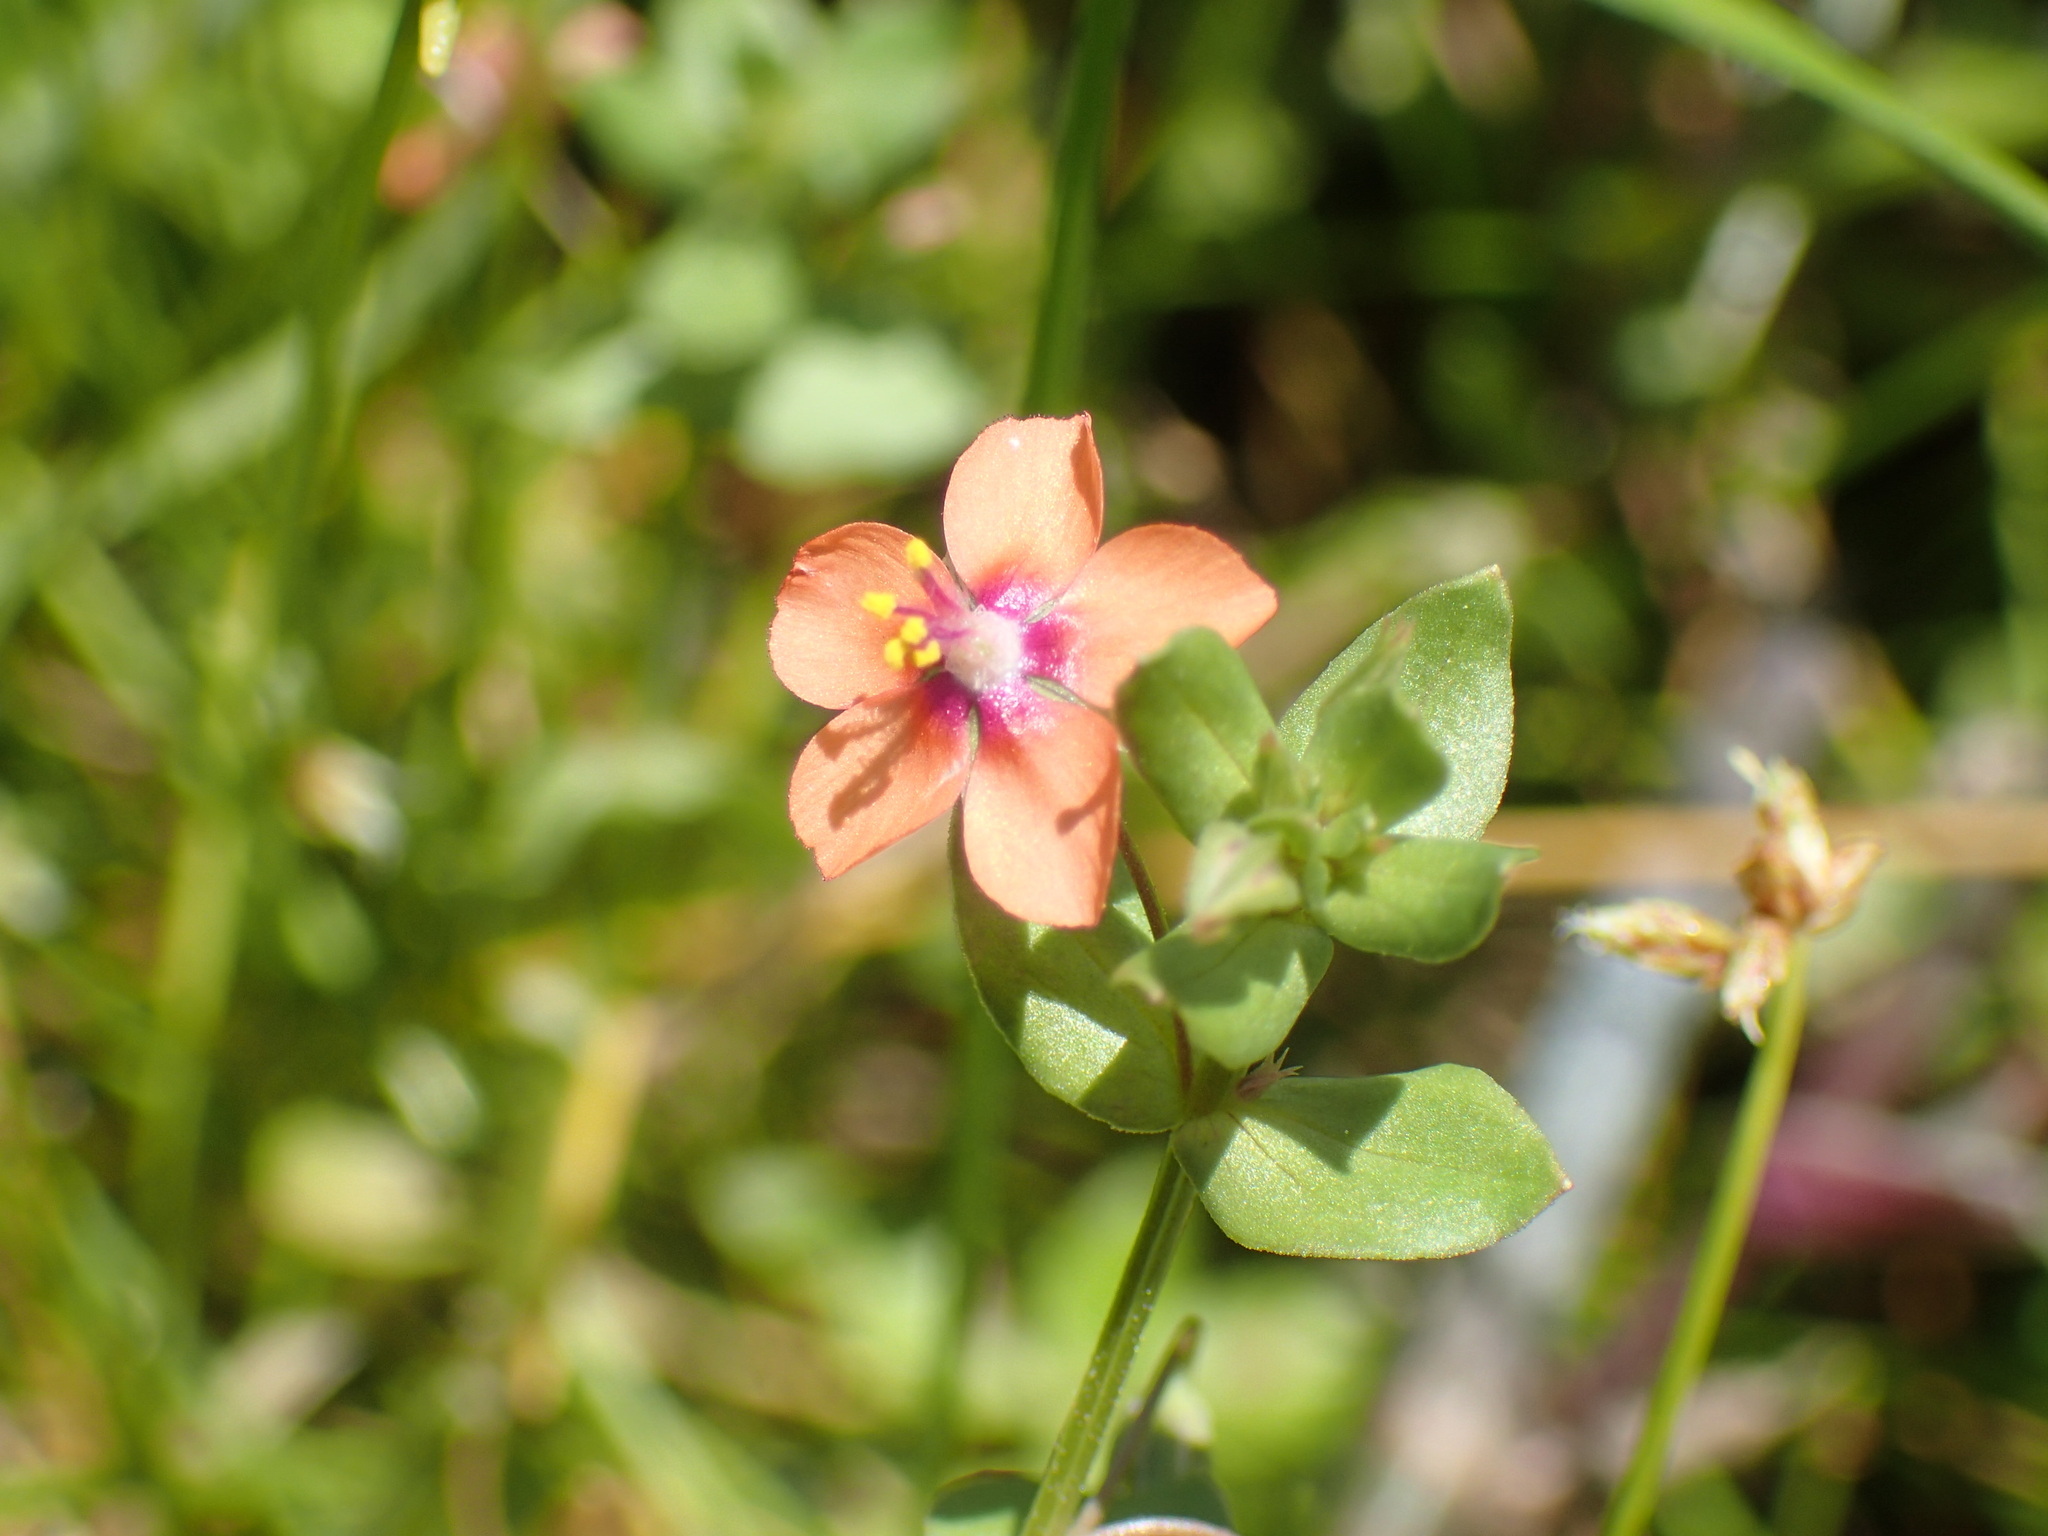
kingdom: Plantae
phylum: Tracheophyta
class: Magnoliopsida
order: Ericales
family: Primulaceae
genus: Lysimachia
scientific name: Lysimachia arvensis
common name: Scarlet pimpernel
